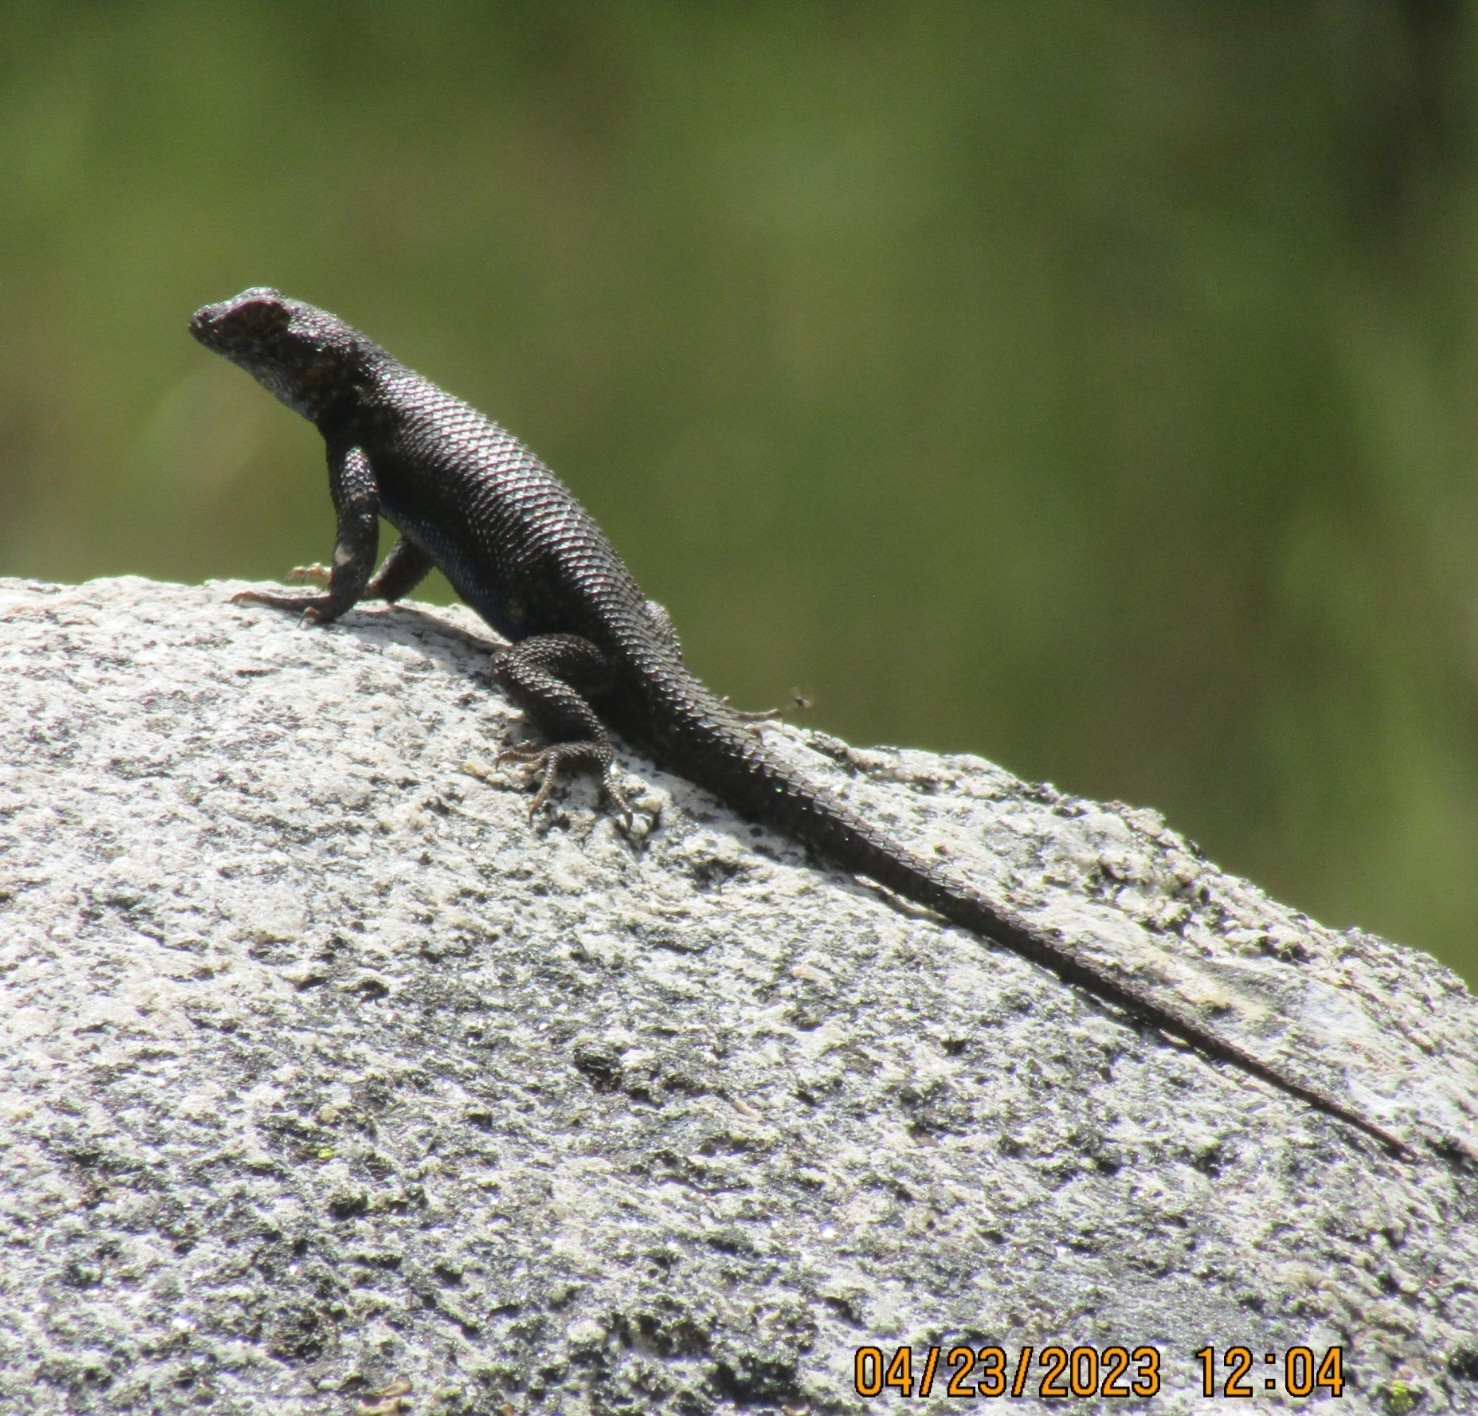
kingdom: Animalia
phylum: Chordata
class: Squamata
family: Phrynosomatidae
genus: Sceloporus
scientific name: Sceloporus occidentalis
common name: Western fence lizard
